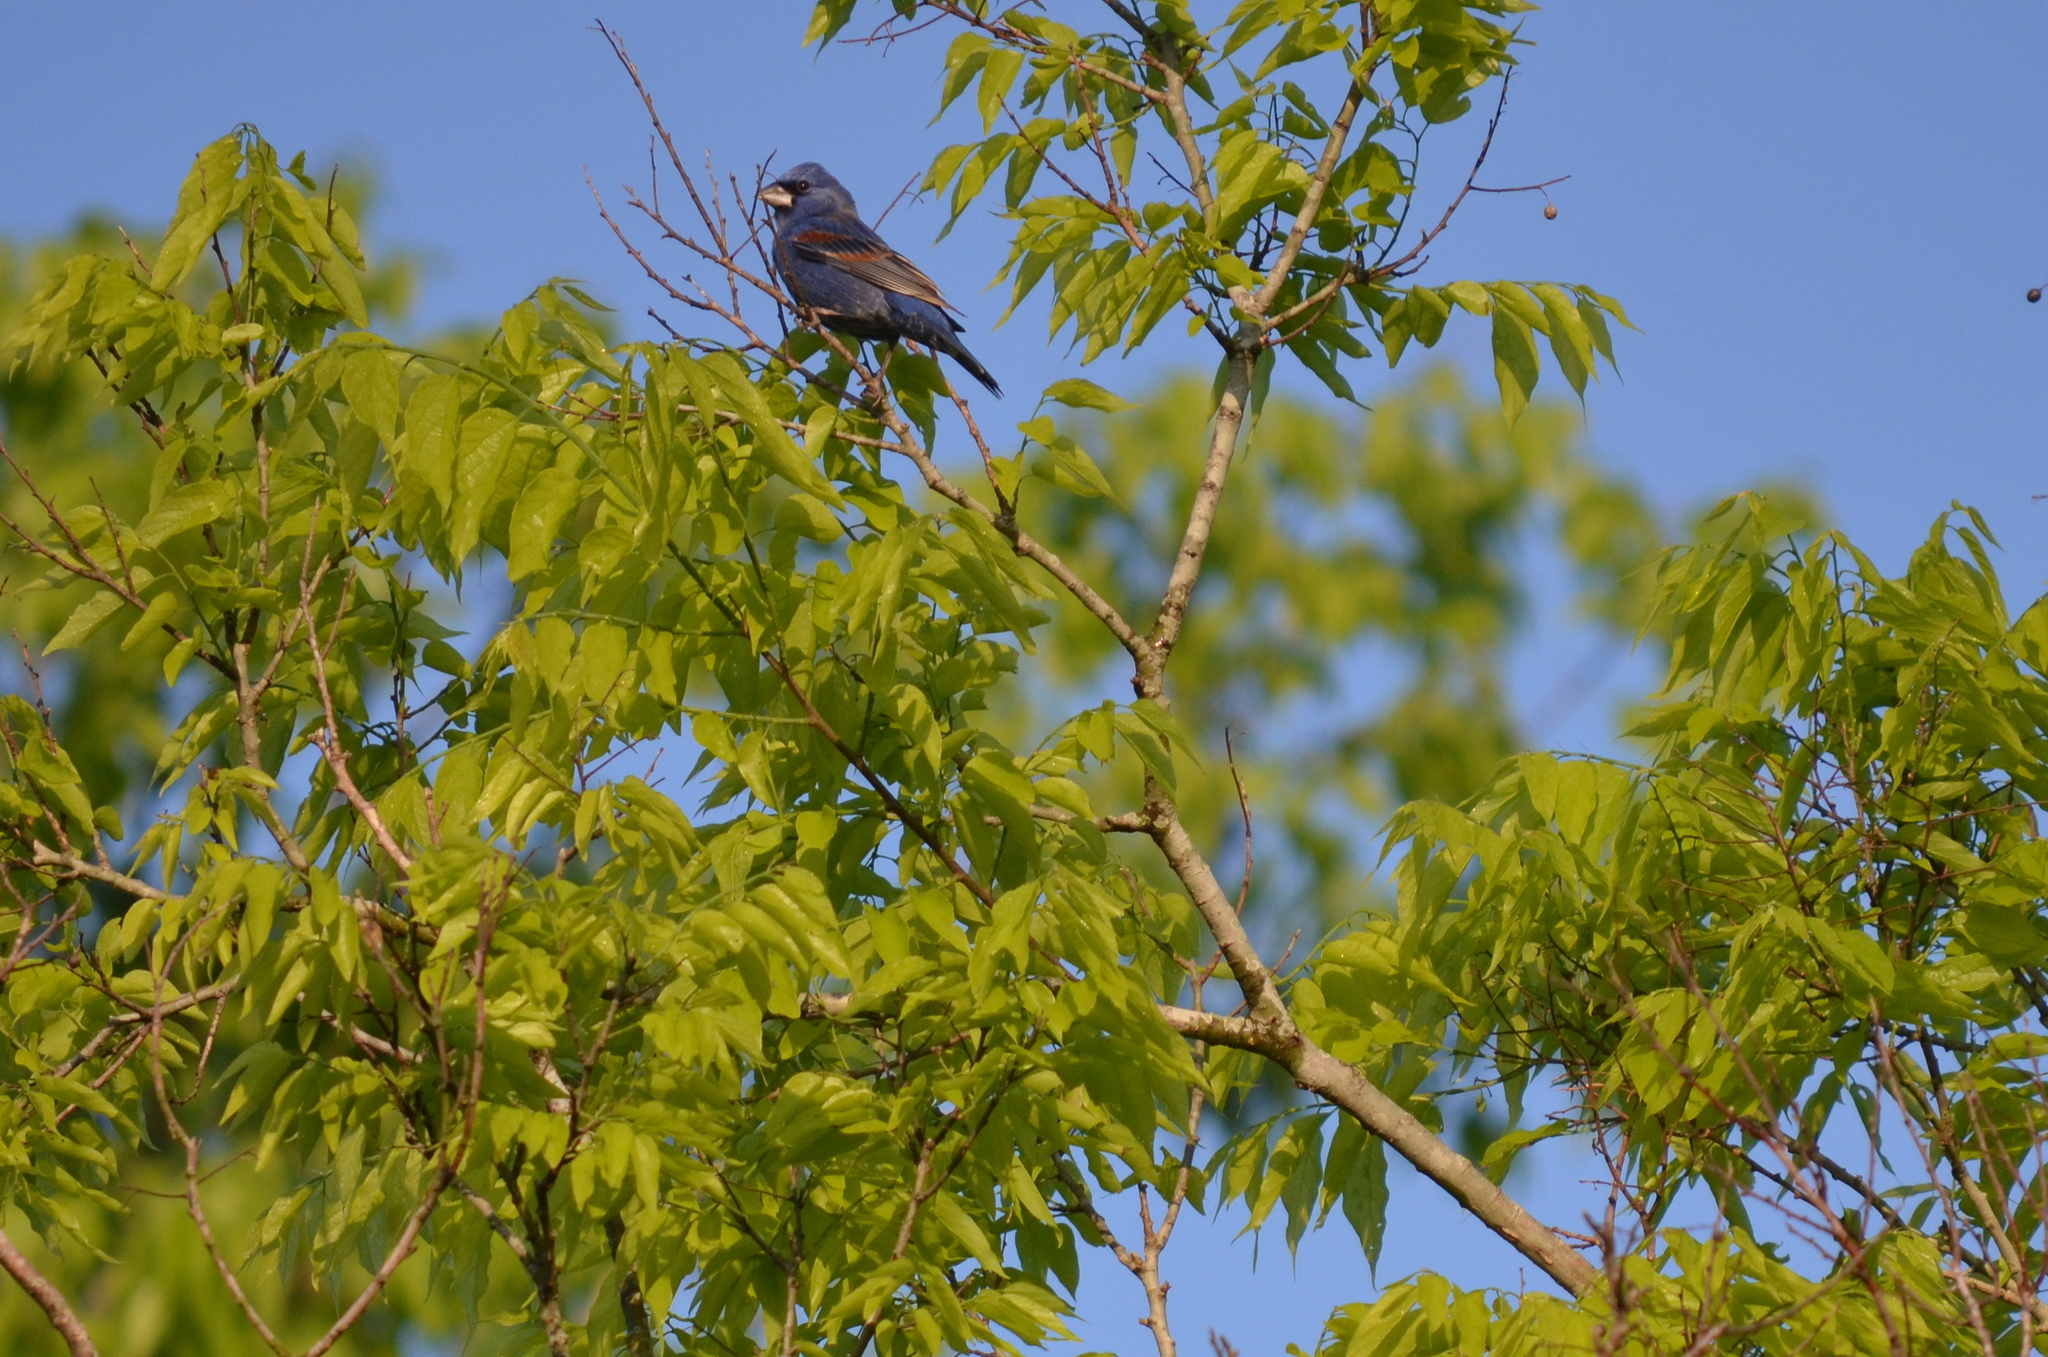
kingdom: Animalia
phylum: Chordata
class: Aves
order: Passeriformes
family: Cardinalidae
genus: Passerina
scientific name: Passerina caerulea
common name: Blue grosbeak
